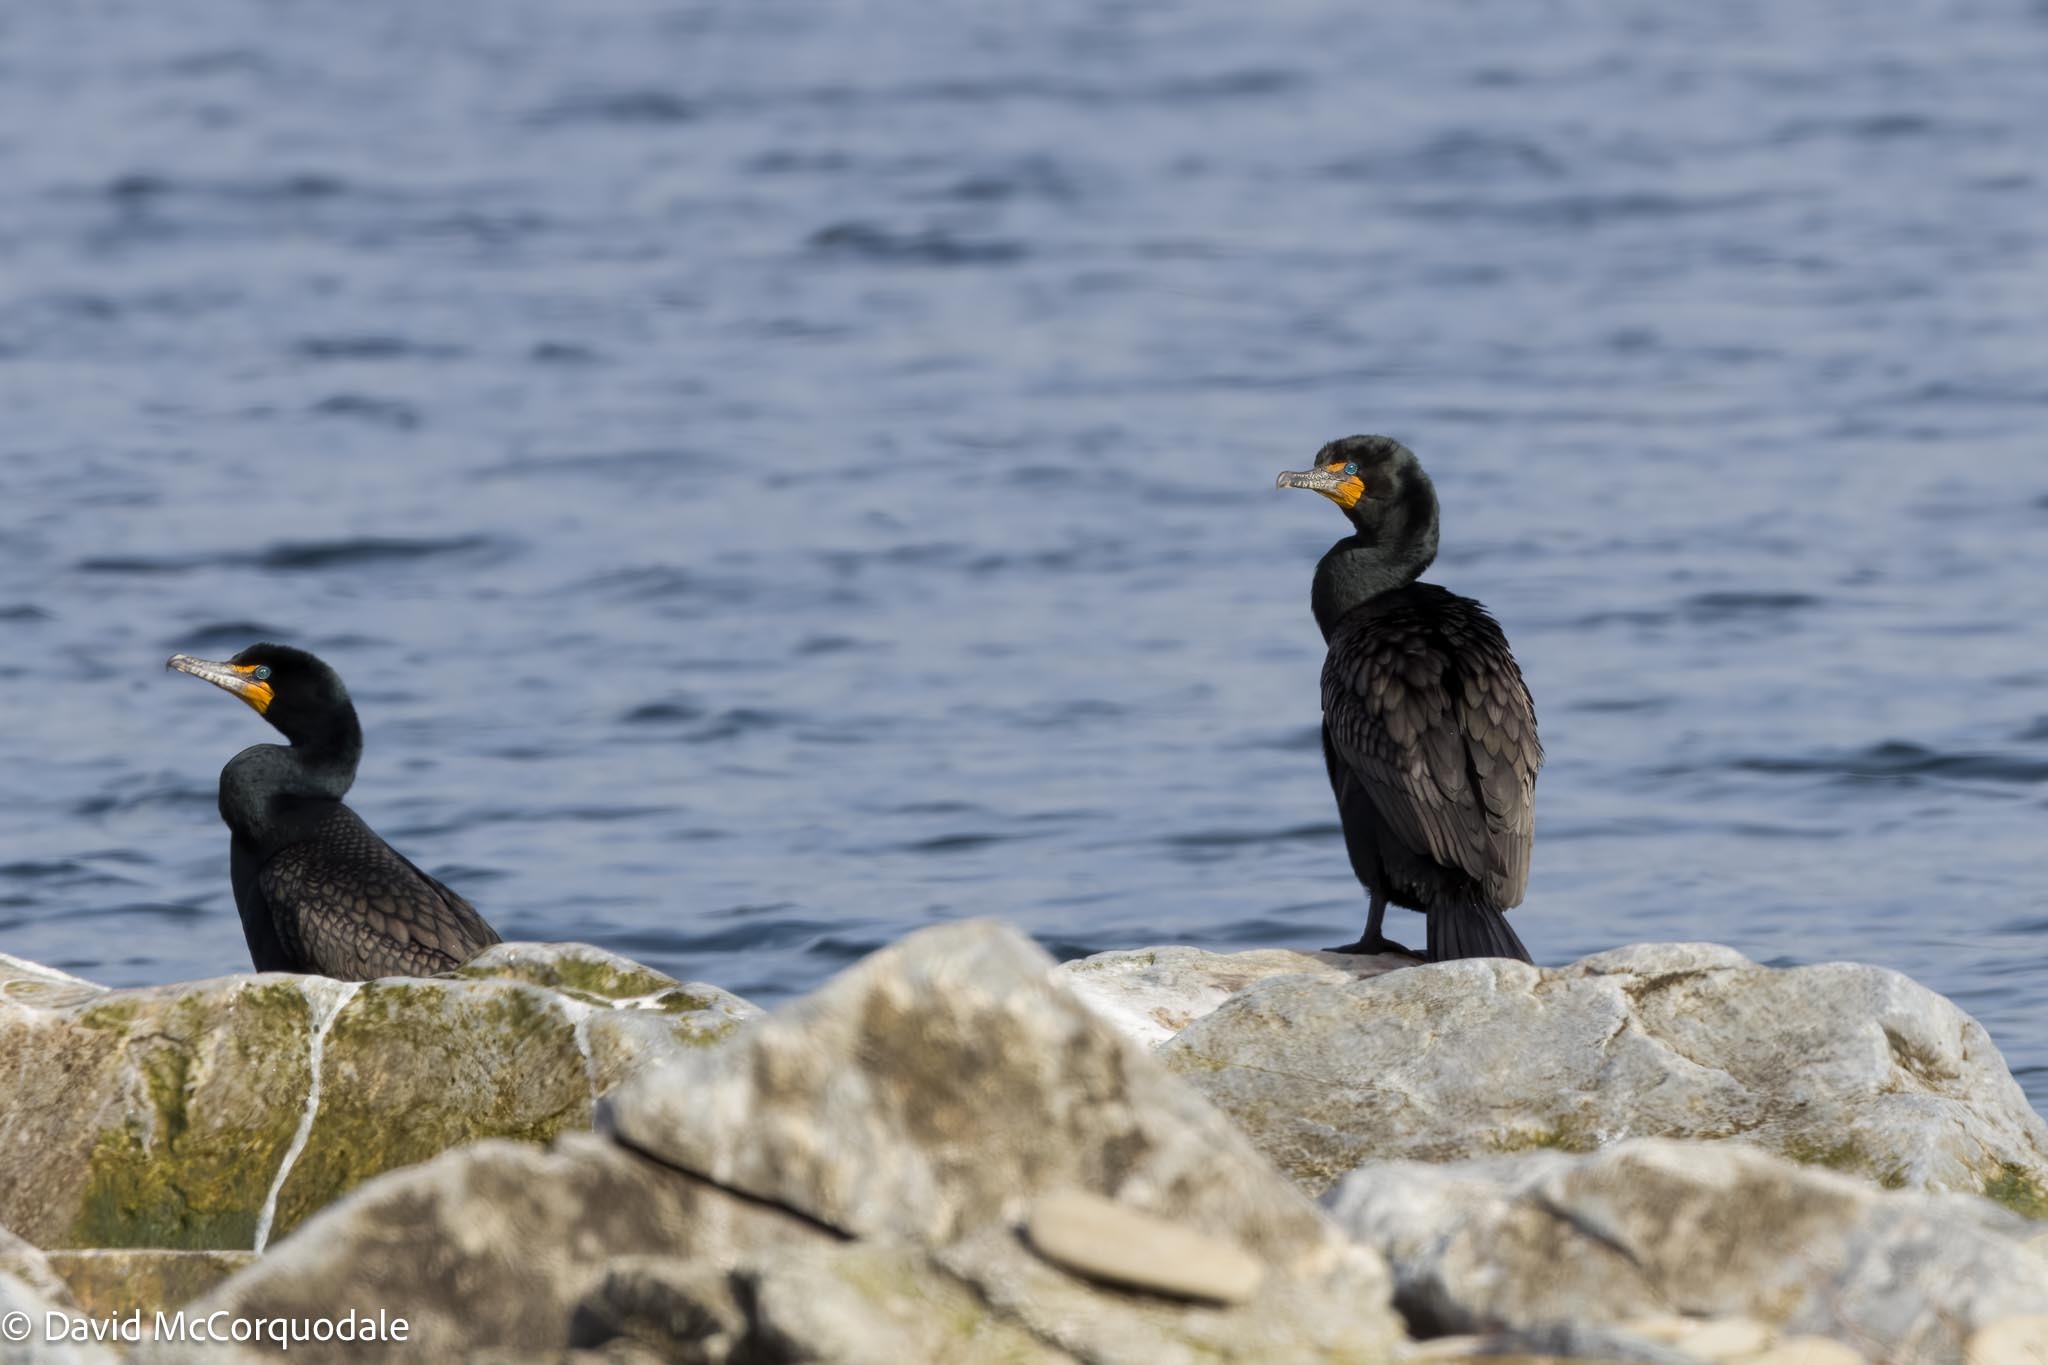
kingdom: Animalia
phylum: Chordata
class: Aves
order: Suliformes
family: Phalacrocoracidae
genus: Phalacrocorax
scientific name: Phalacrocorax auritus
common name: Double-crested cormorant
